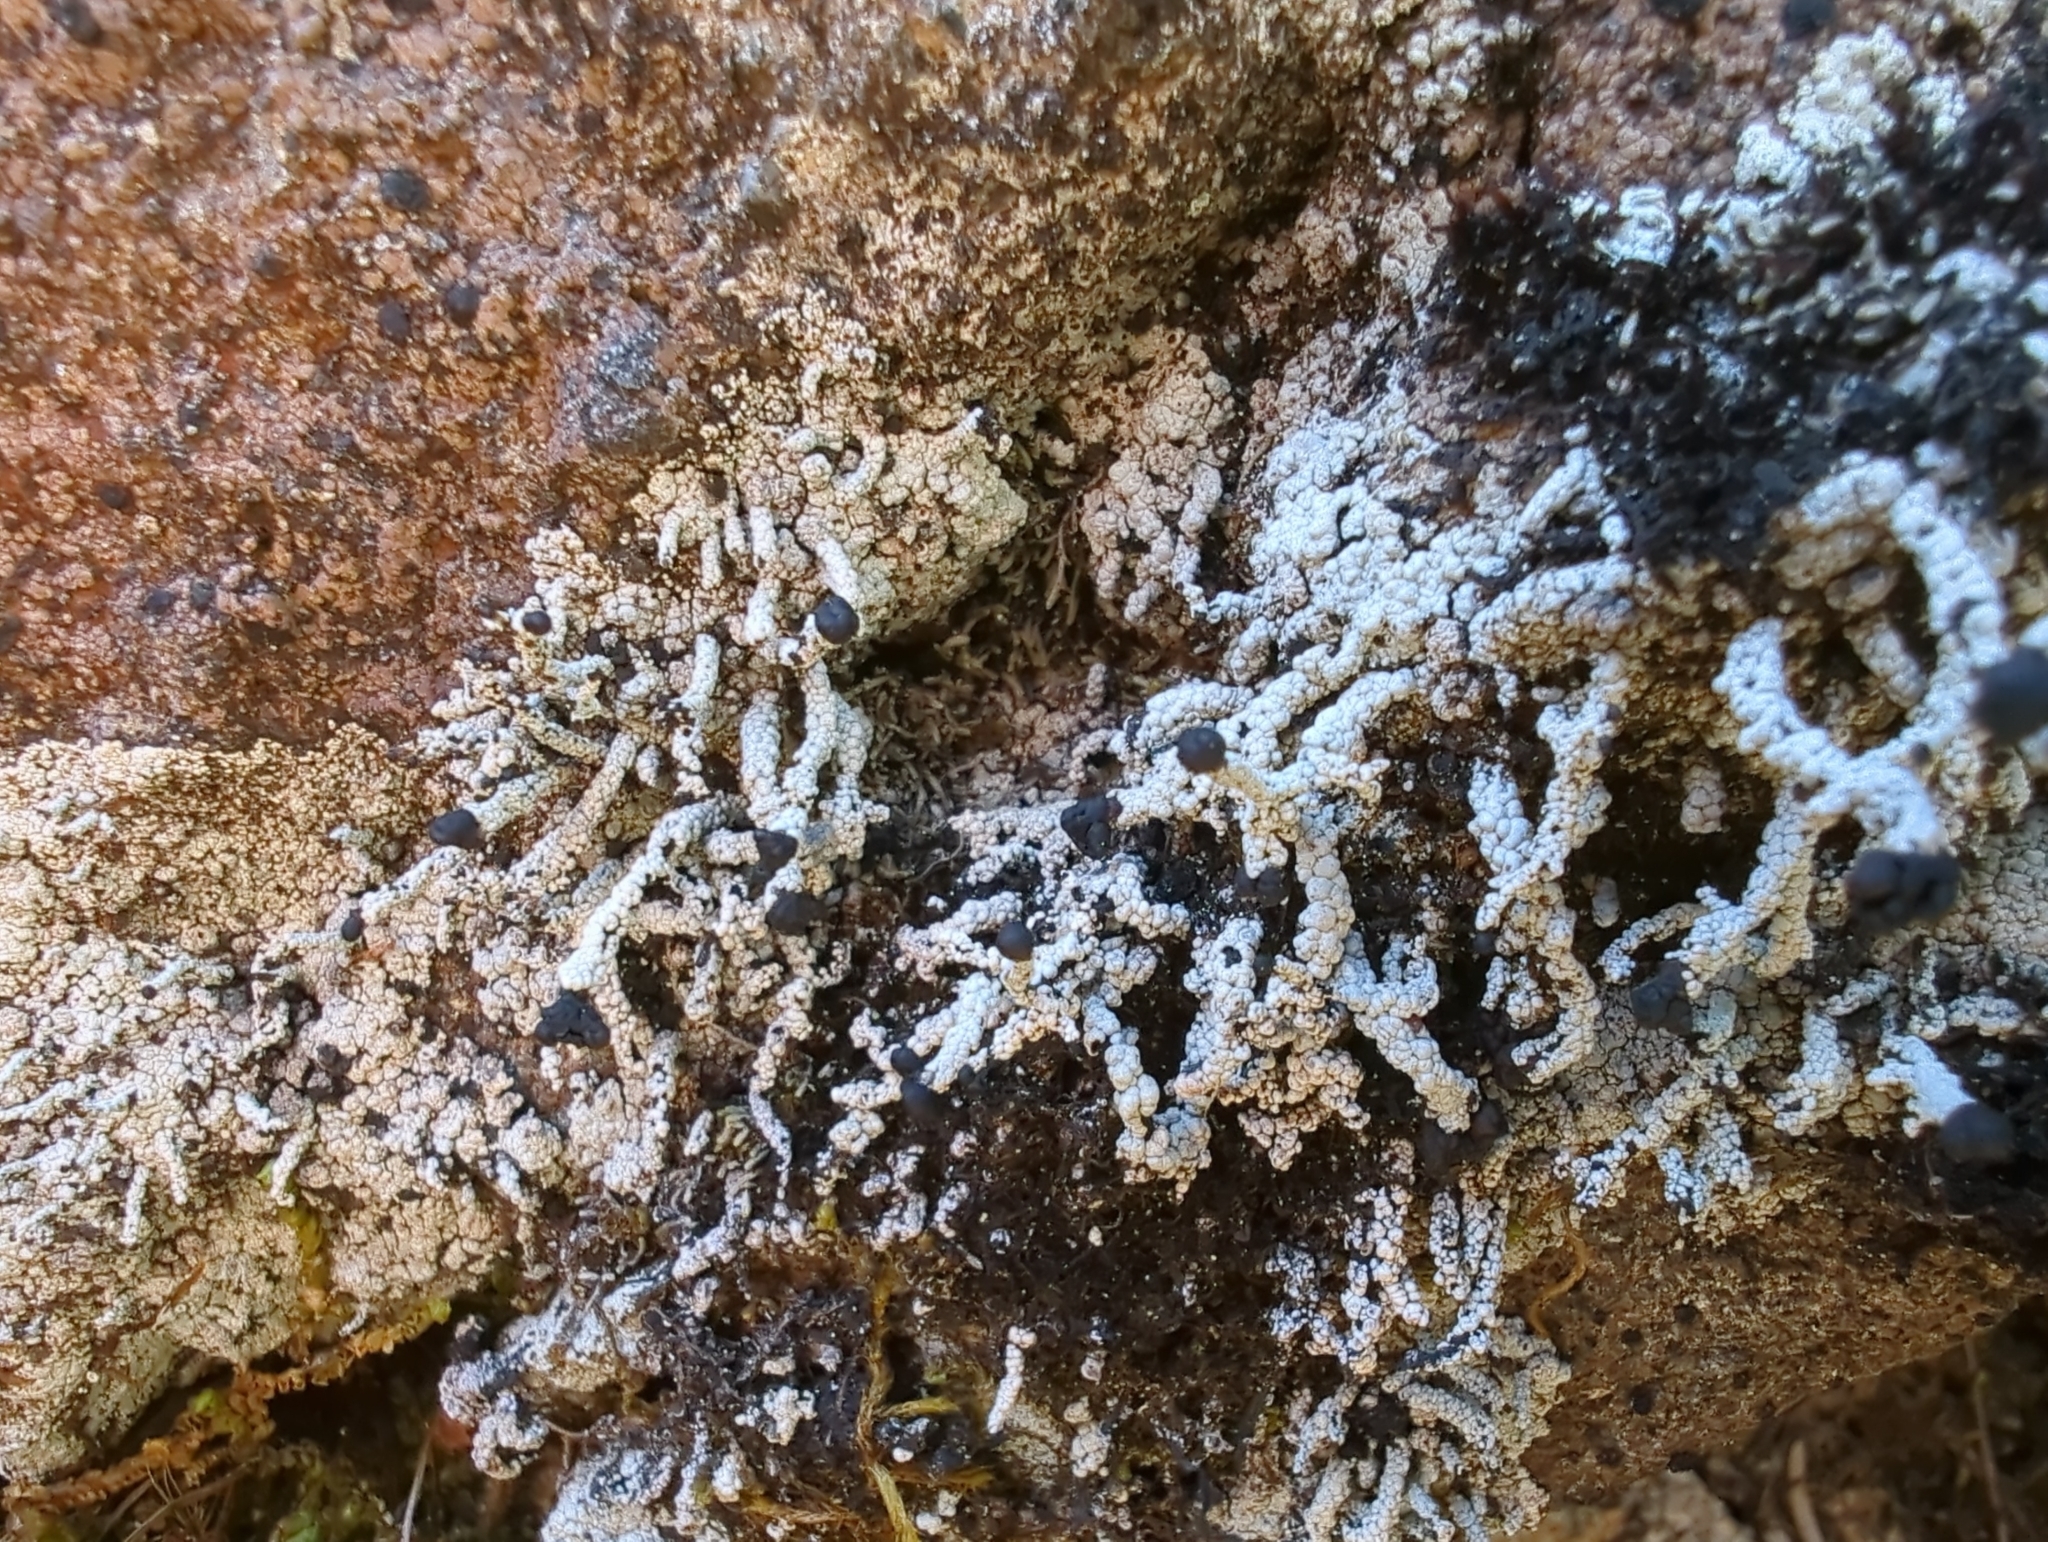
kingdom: Fungi
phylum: Ascomycota
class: Lecanoromycetes
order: Lecanorales
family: Cladoniaceae
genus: Pilophorus
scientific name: Pilophorus nigricaulis
